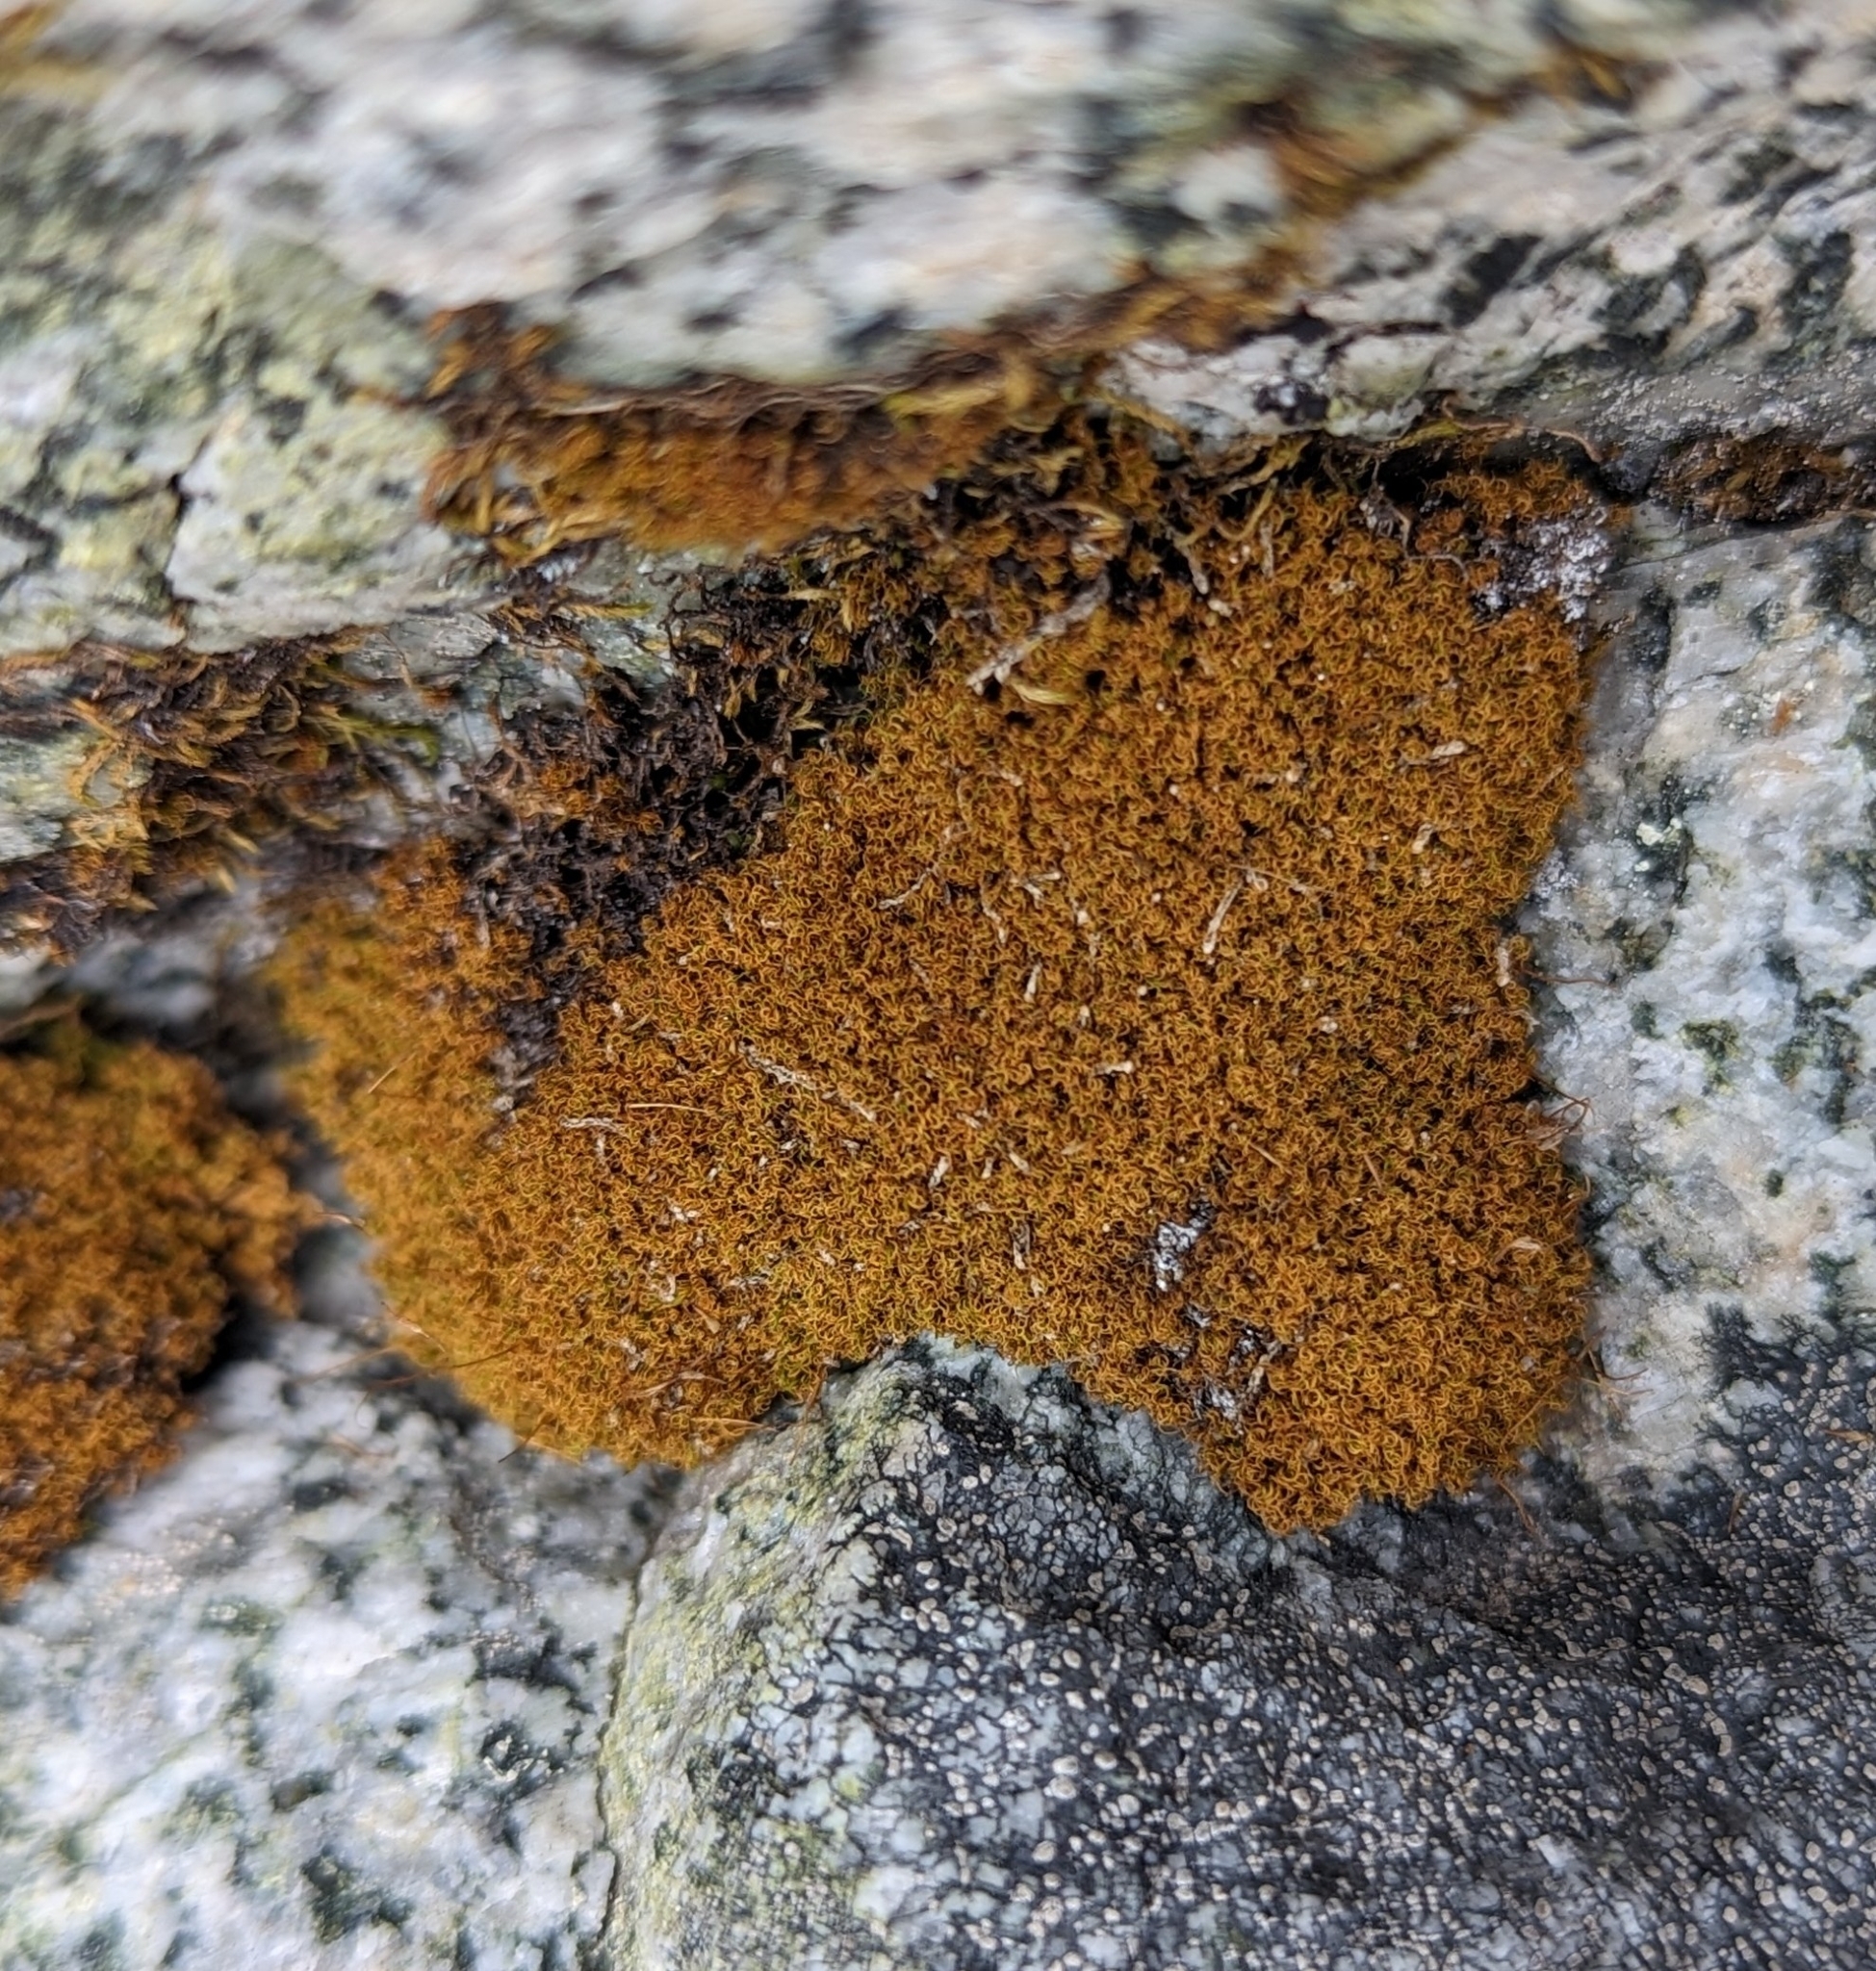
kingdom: Plantae
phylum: Bryophyta
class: Bryopsida
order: Scouleriales
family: Hymenolomataceae
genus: Hymenoloma
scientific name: Hymenoloma crispulum
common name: Mountain pincushion
